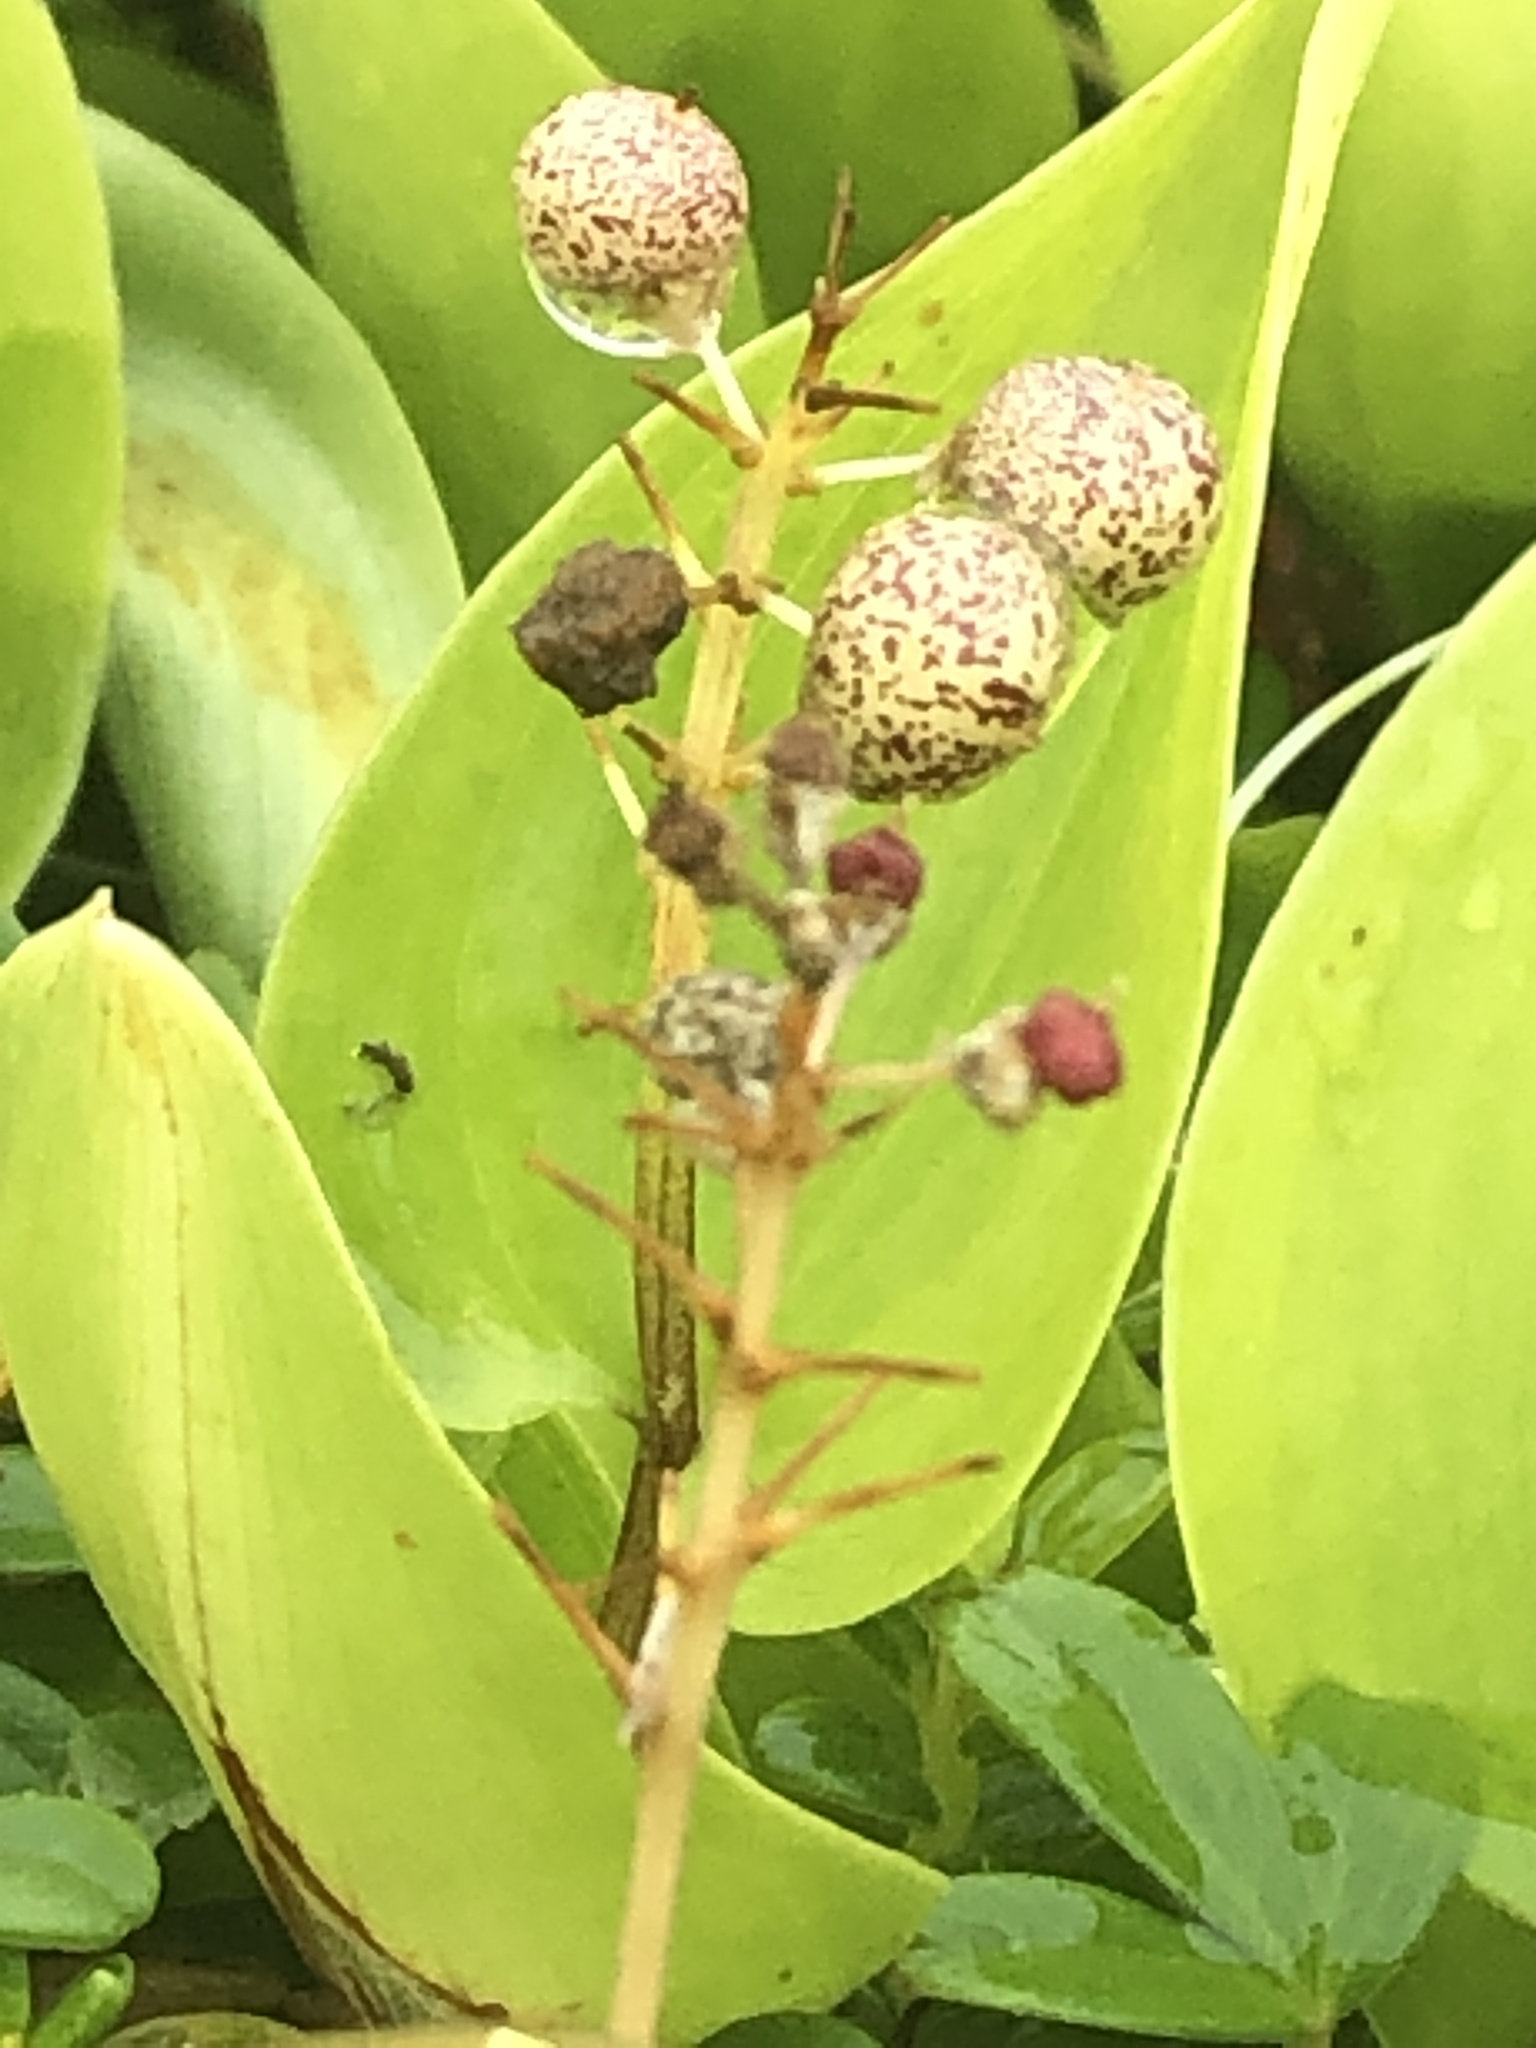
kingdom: Plantae
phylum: Tracheophyta
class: Liliopsida
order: Asparagales
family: Asparagaceae
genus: Maianthemum
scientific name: Maianthemum canadense
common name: False lily-of-the-valley
